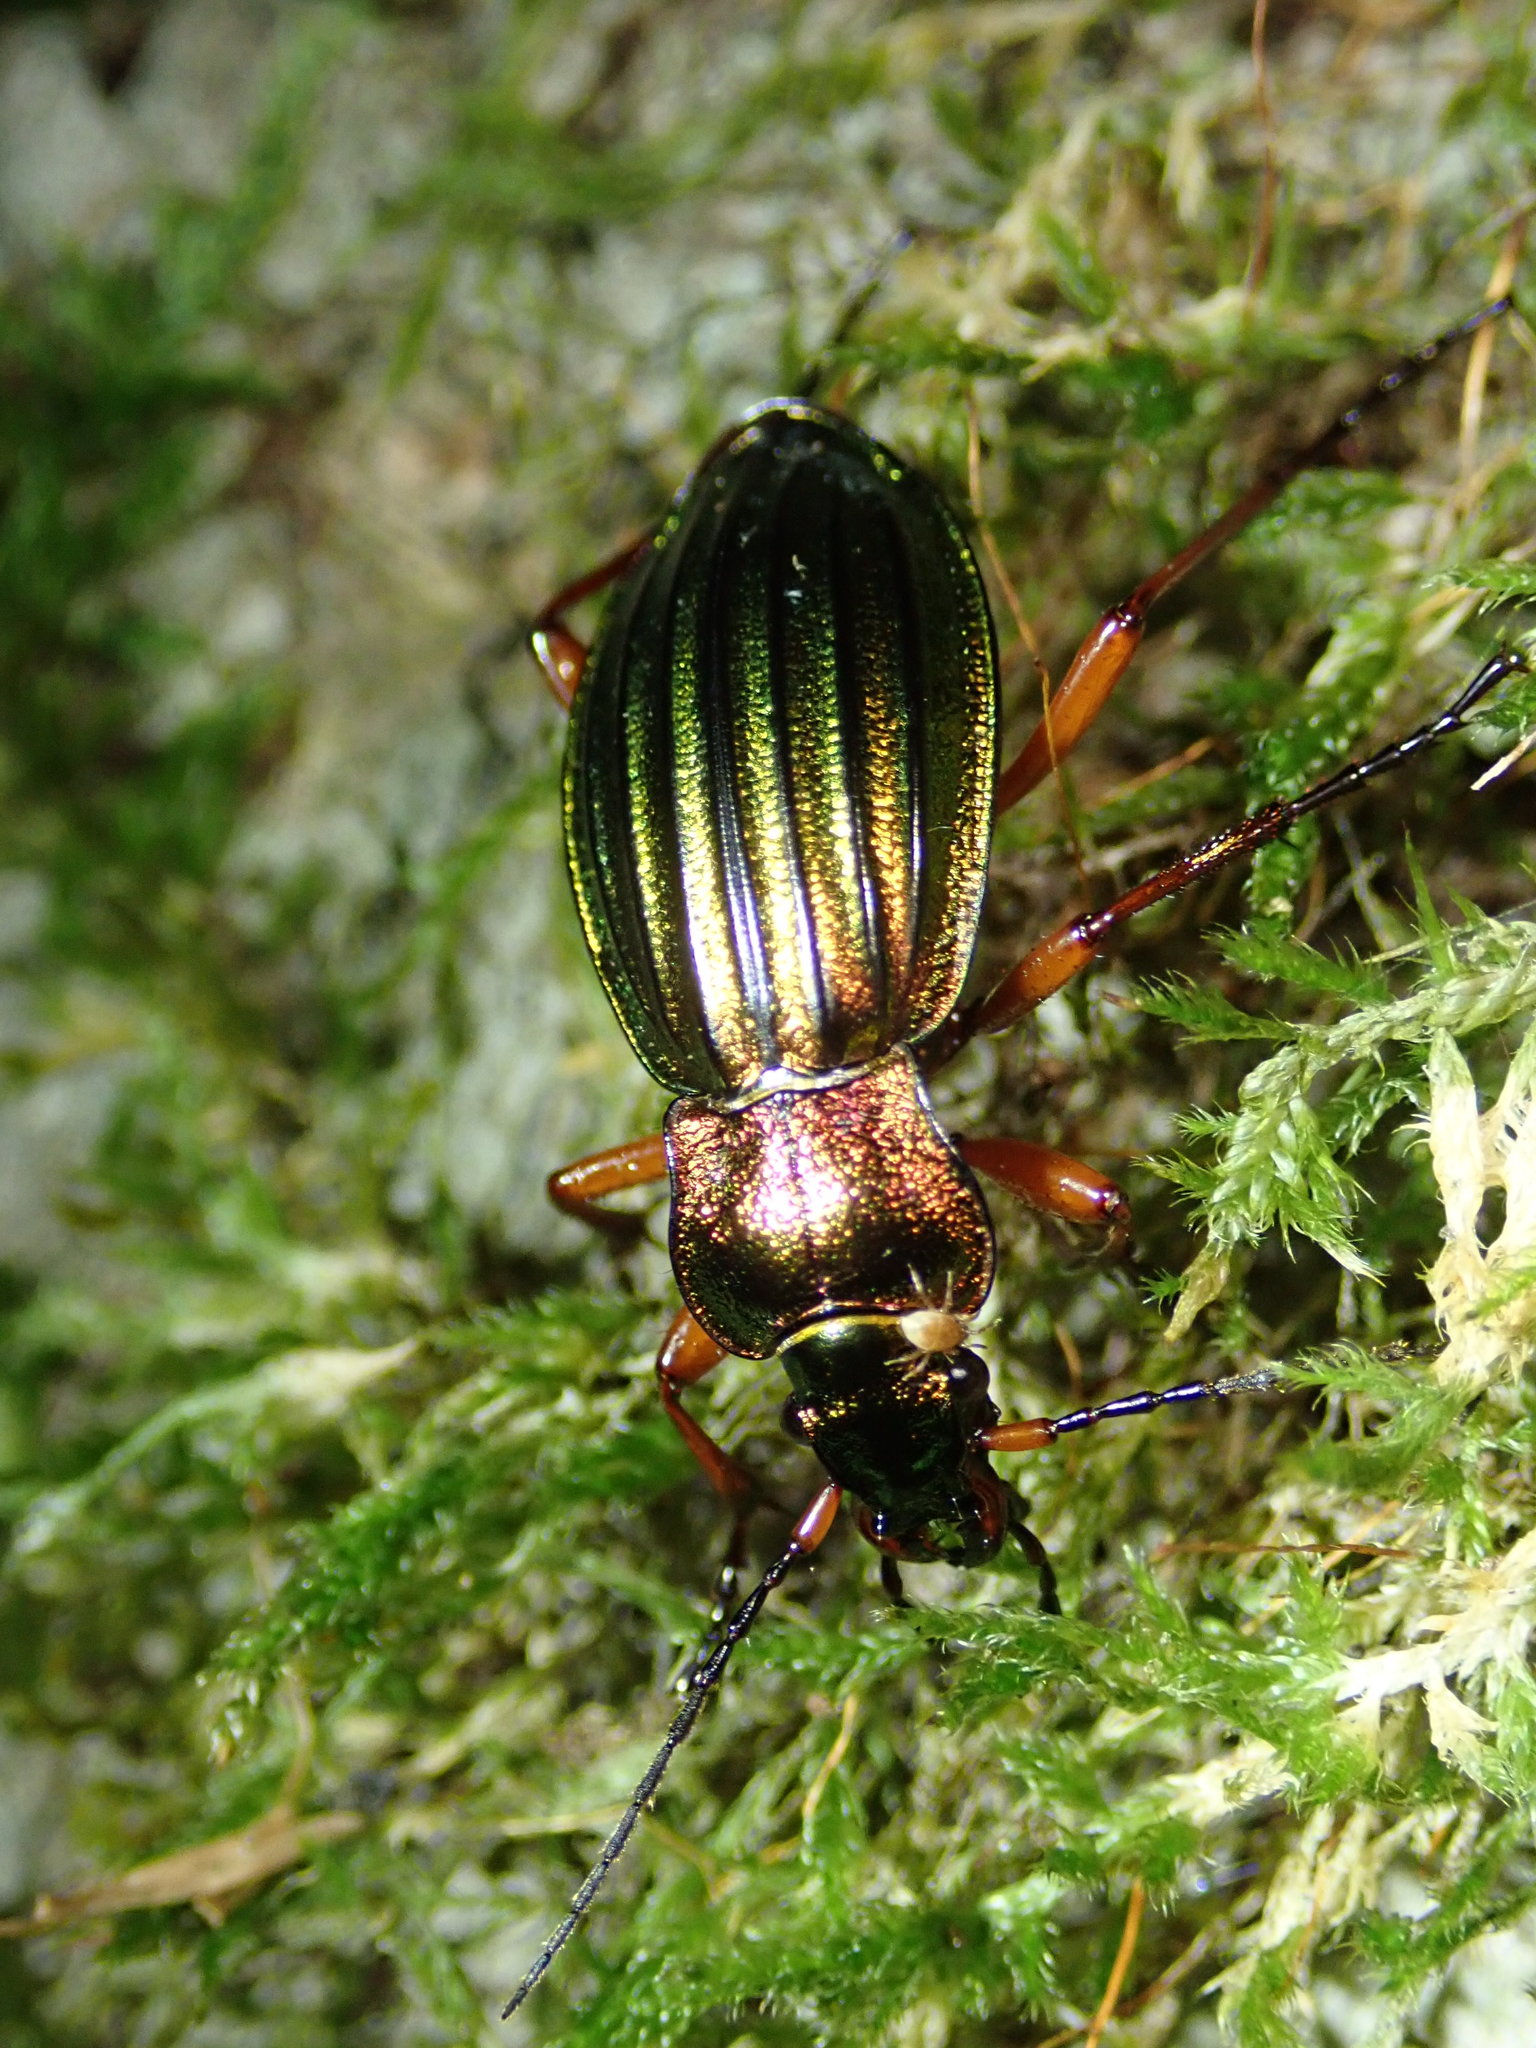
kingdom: Animalia
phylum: Arthropoda
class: Insecta
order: Coleoptera
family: Carabidae
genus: Carabus
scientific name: Carabus auronitens
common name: Carabus auronitens
